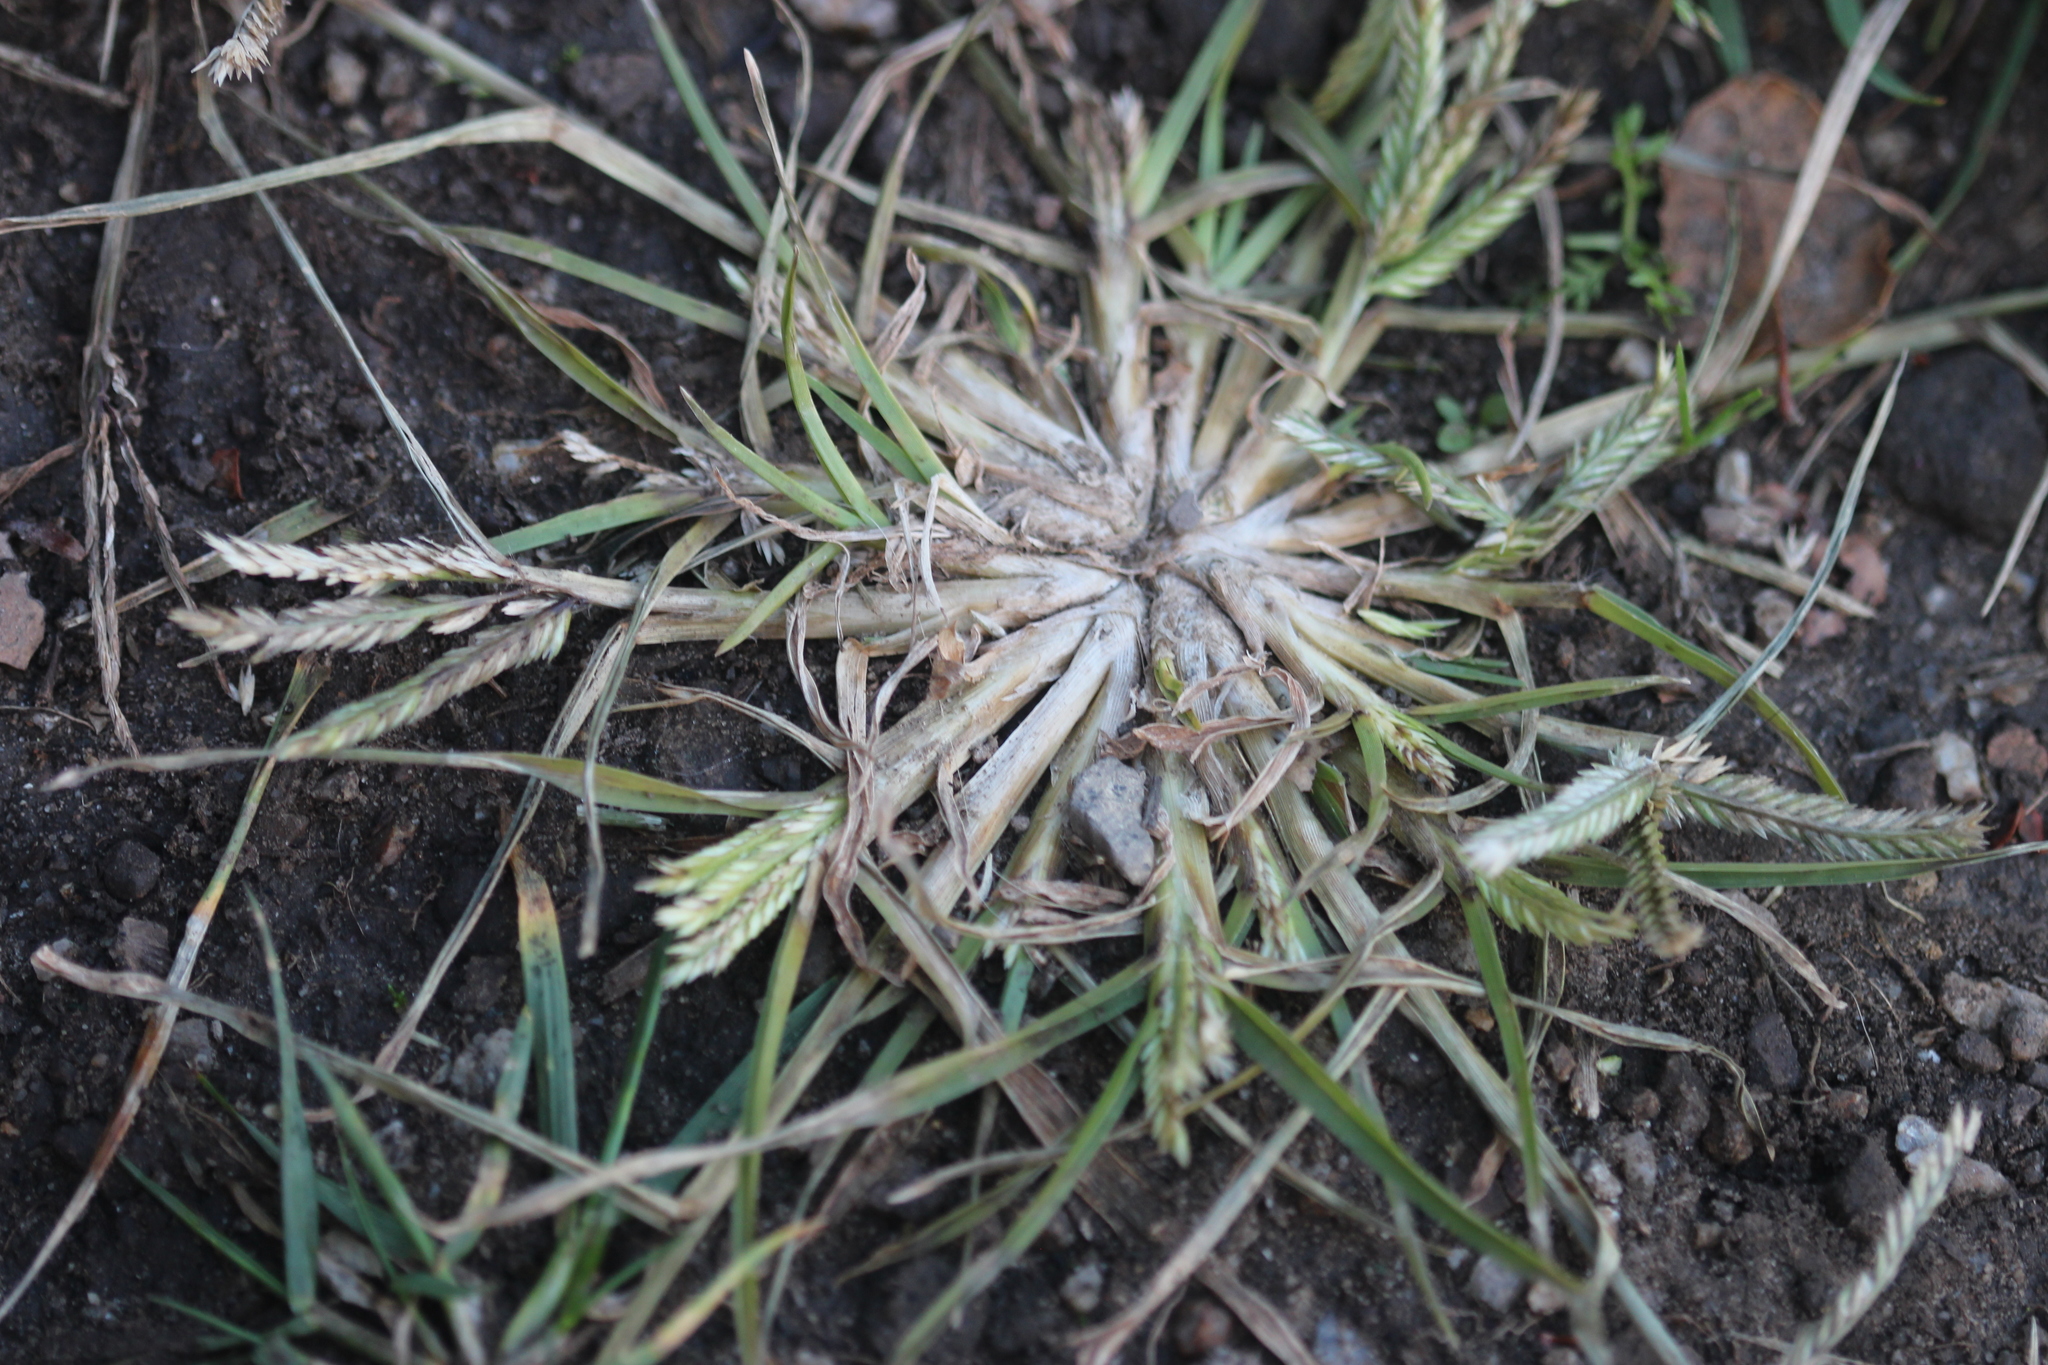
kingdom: Plantae
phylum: Tracheophyta
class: Liliopsida
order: Poales
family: Poaceae
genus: Eleusine
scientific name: Eleusine indica
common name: Yard-grass
